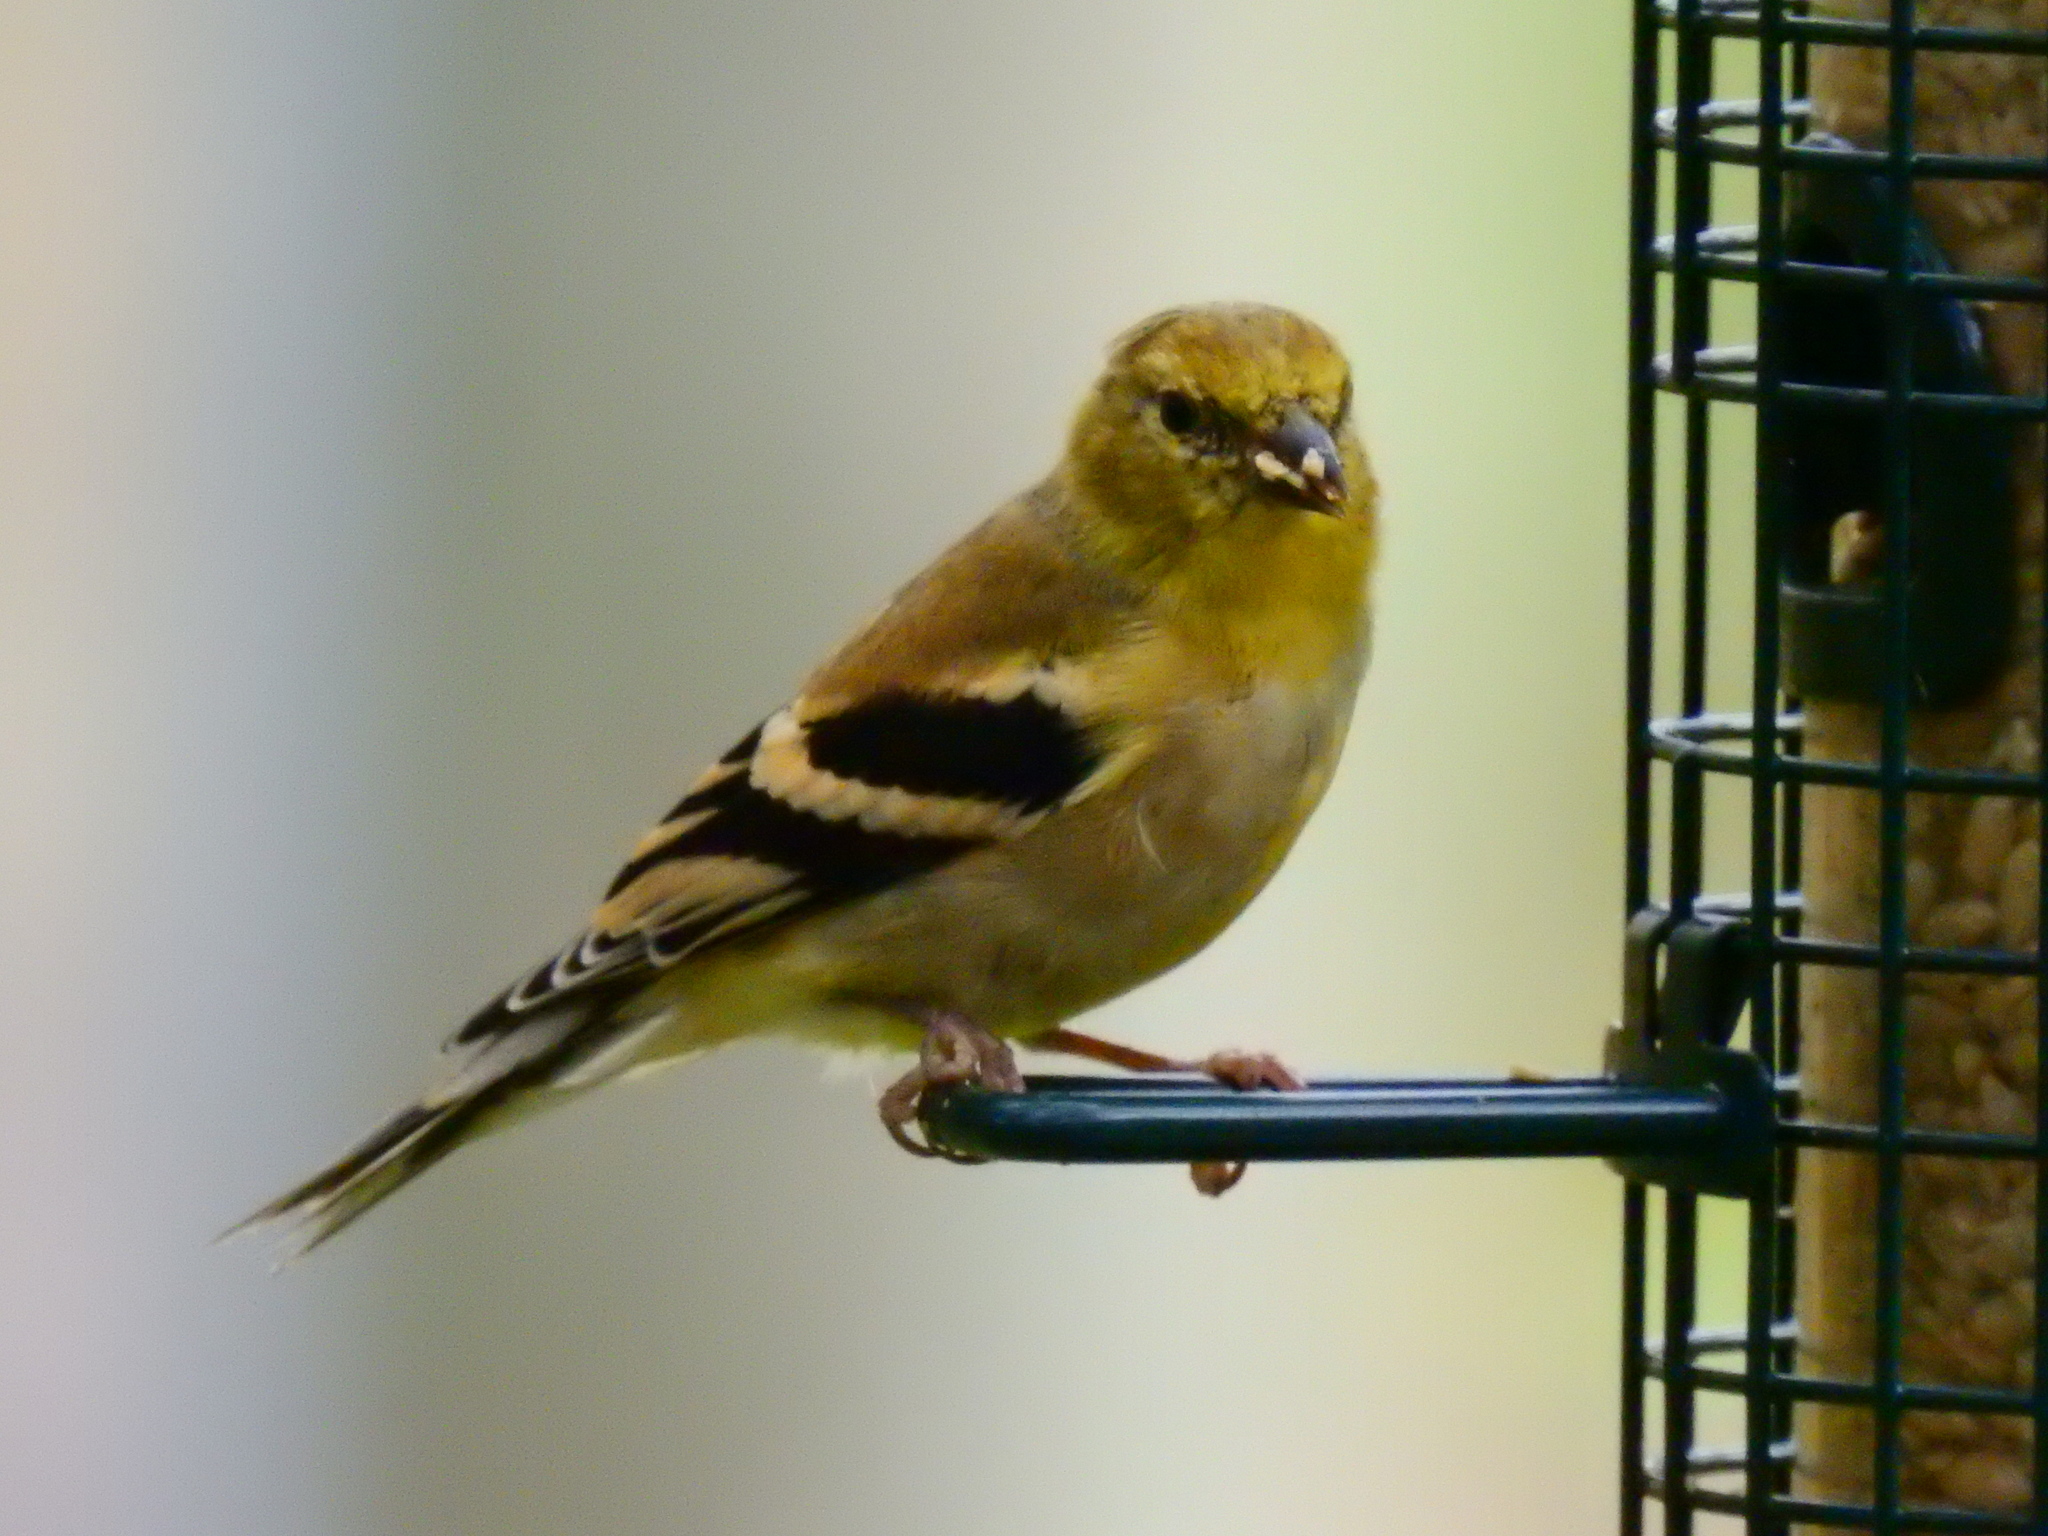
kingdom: Animalia
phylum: Chordata
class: Aves
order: Passeriformes
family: Fringillidae
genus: Spinus
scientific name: Spinus tristis
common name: American goldfinch
